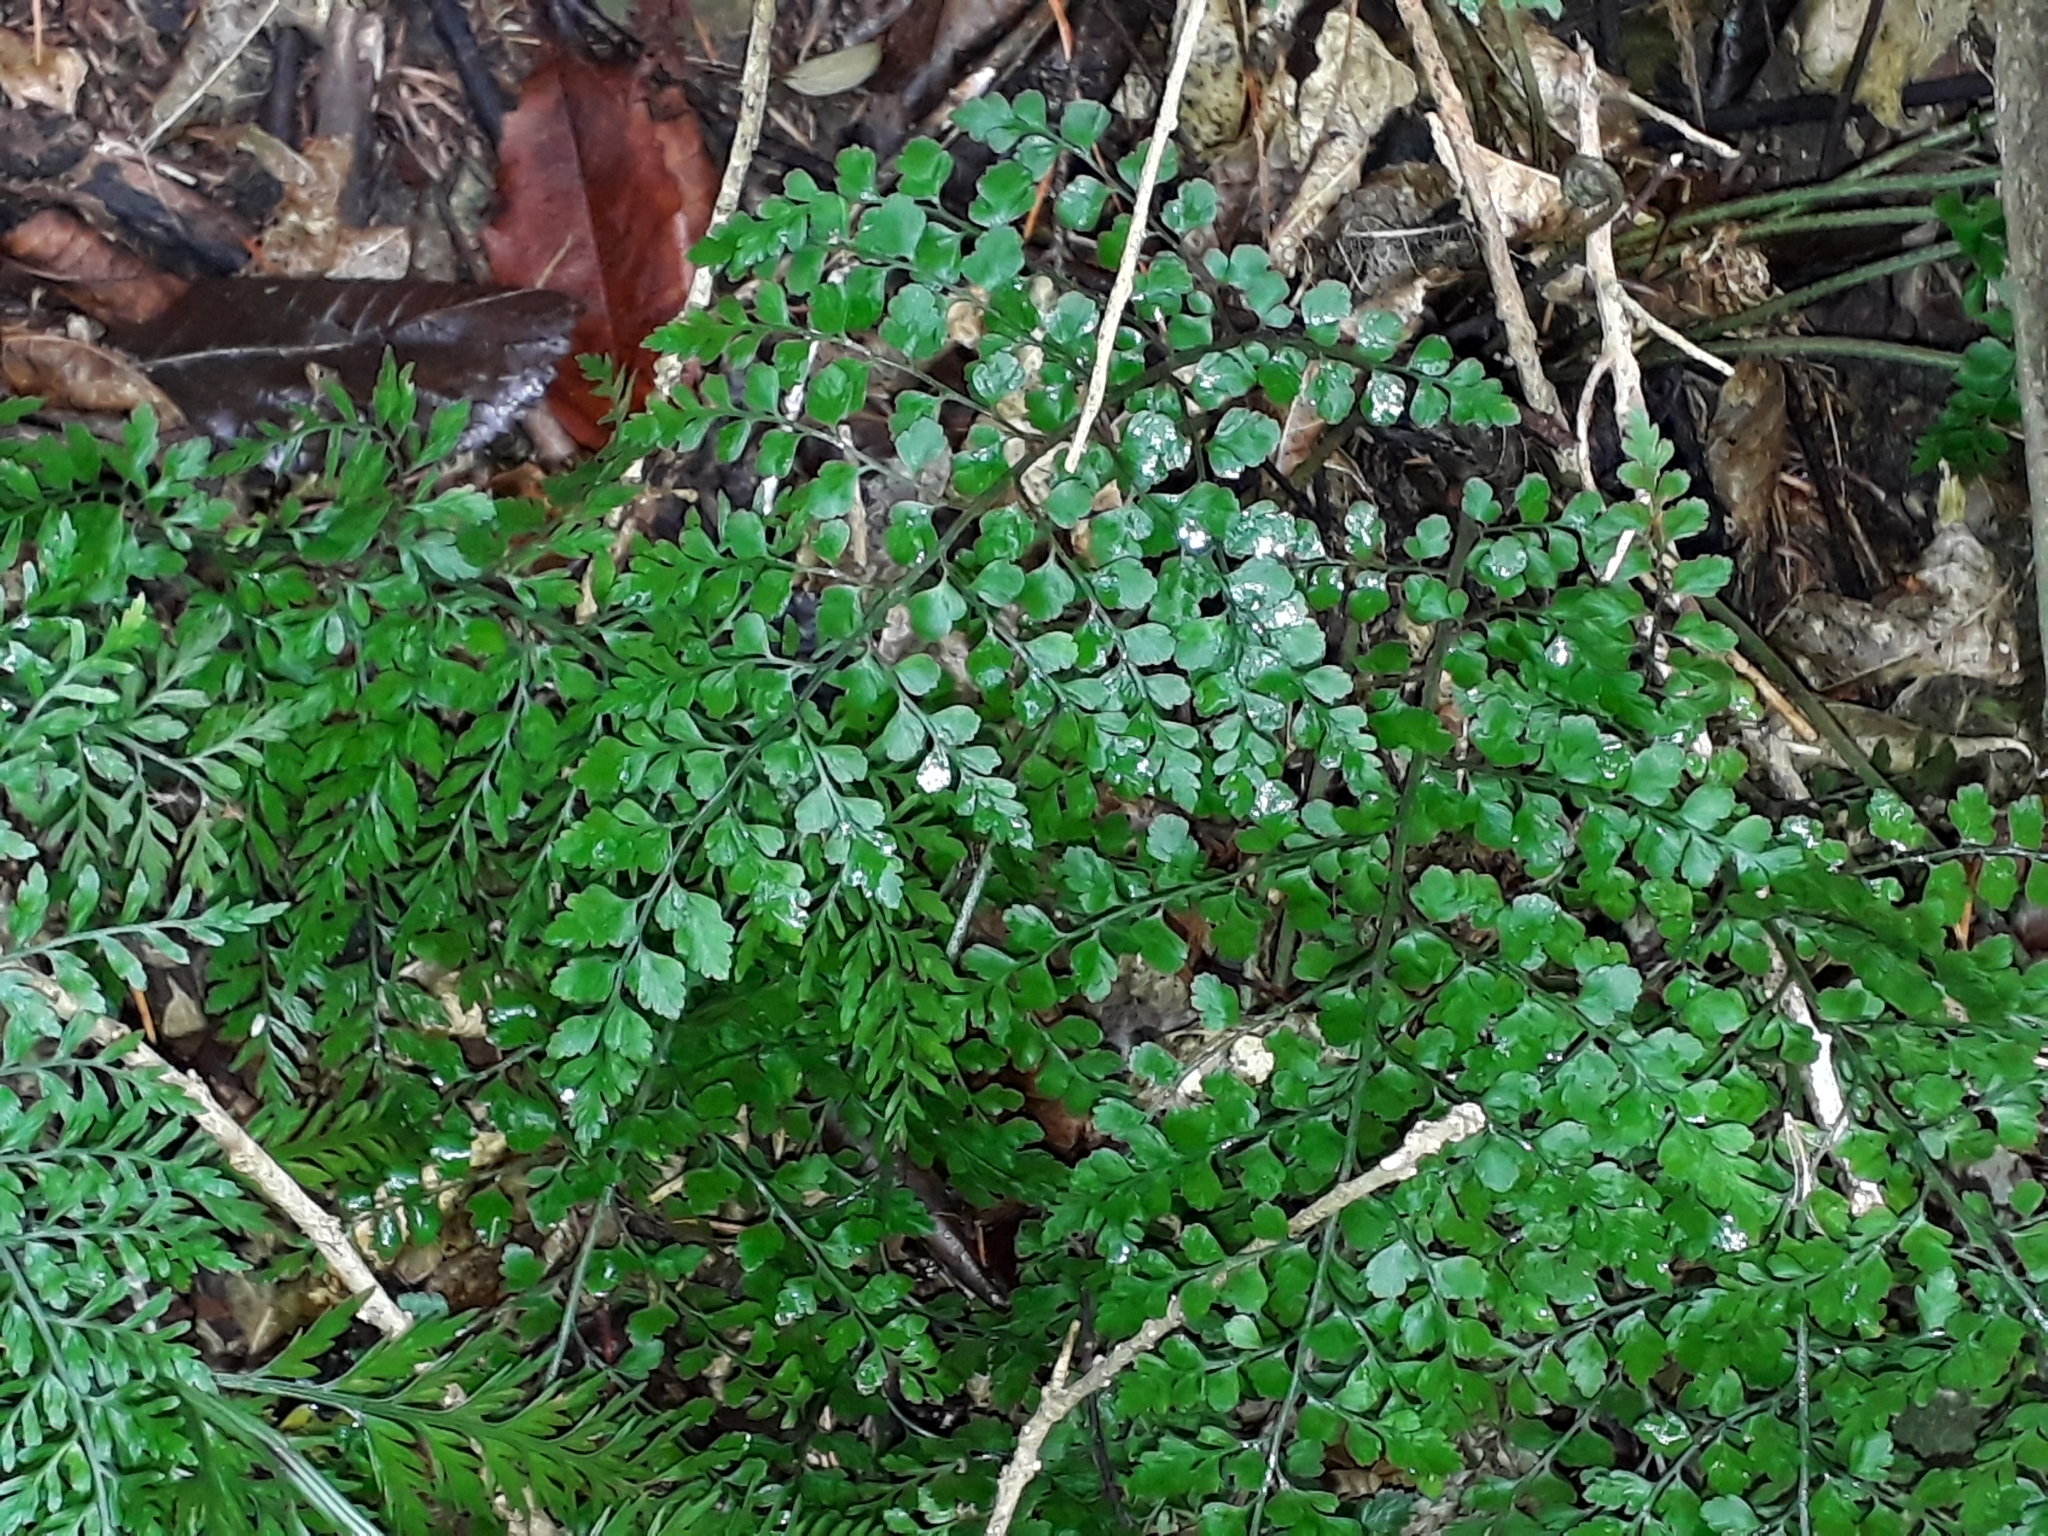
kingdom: Plantae
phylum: Tracheophyta
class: Polypodiopsida
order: Polypodiales
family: Aspleniaceae
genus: Asplenium
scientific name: Asplenium hookerianum
